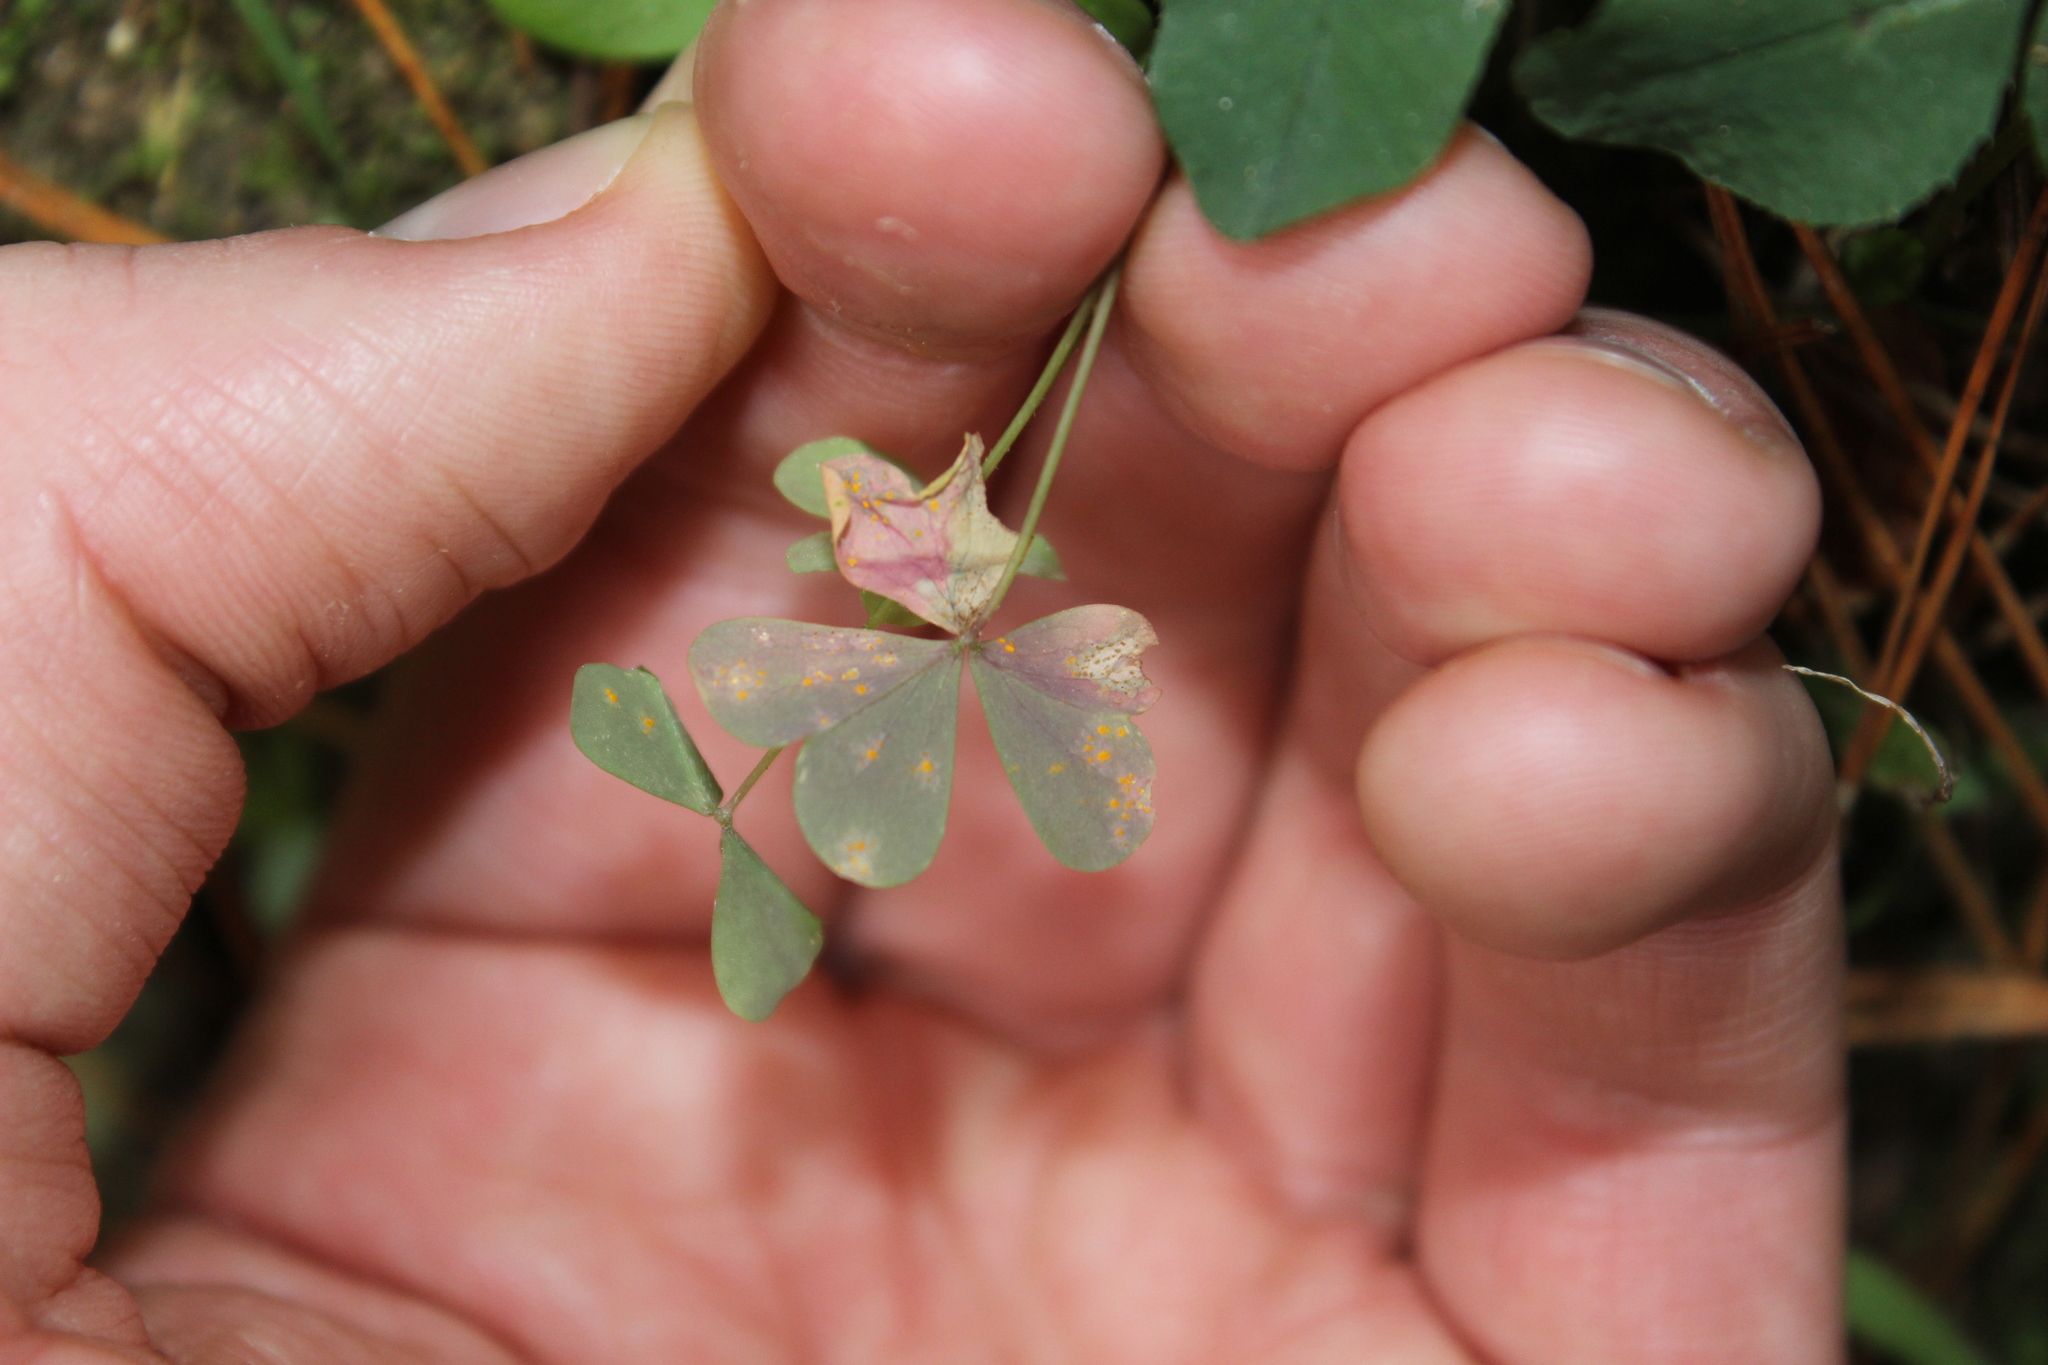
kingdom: Fungi
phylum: Basidiomycota
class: Pucciniomycetes
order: Pucciniales
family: Pucciniaceae
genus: Puccinia
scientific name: Puccinia oxalidis
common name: Oxalis rust
